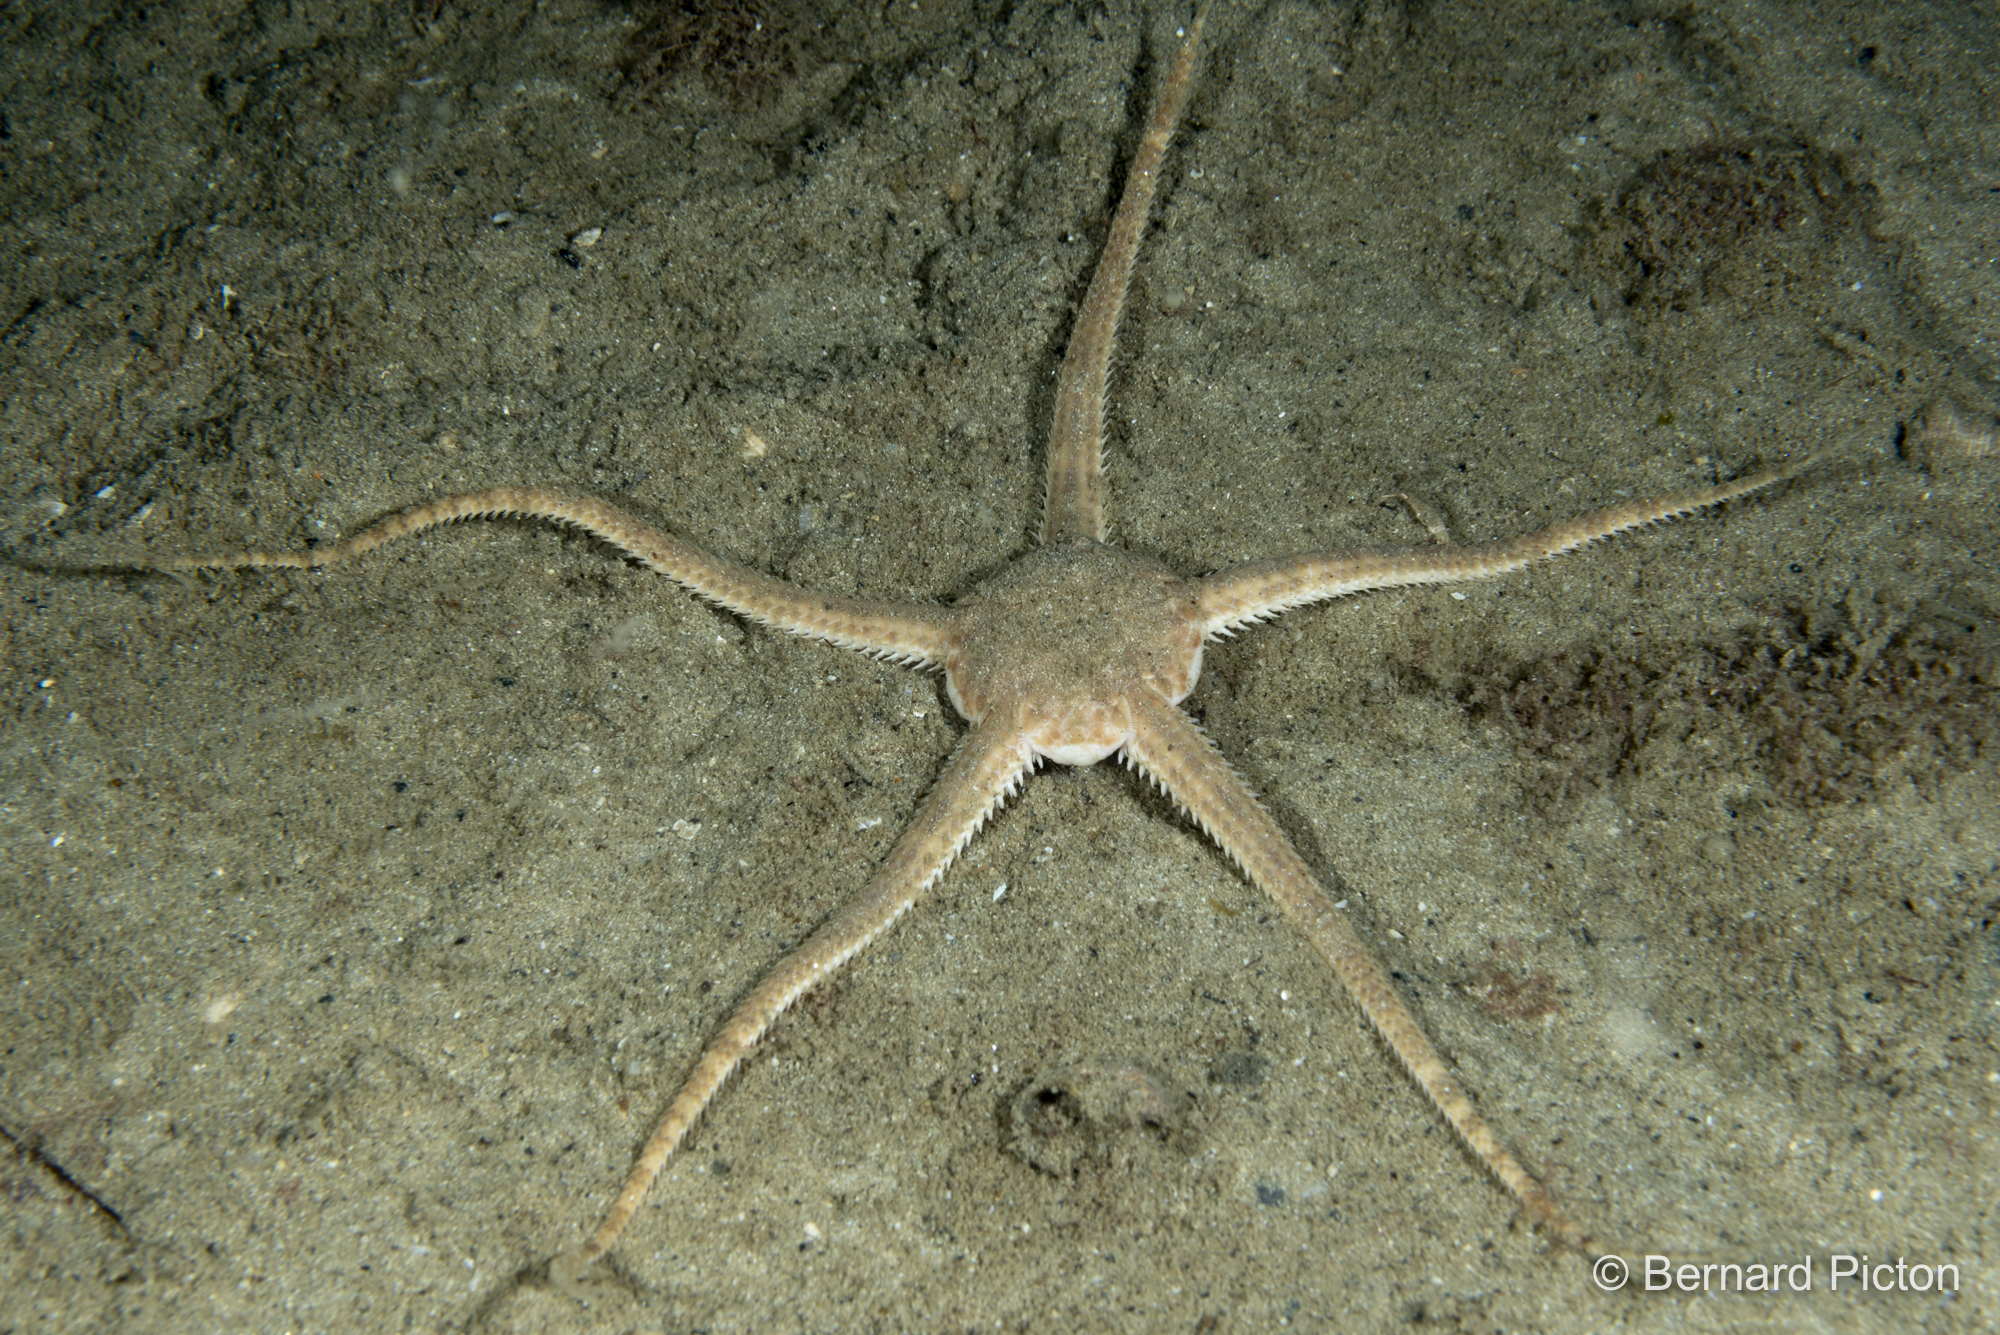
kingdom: Animalia
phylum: Echinodermata
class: Ophiuroidea
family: Ophiuridae
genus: Ophiura
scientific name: Ophiura ophiura
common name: Serpent star
